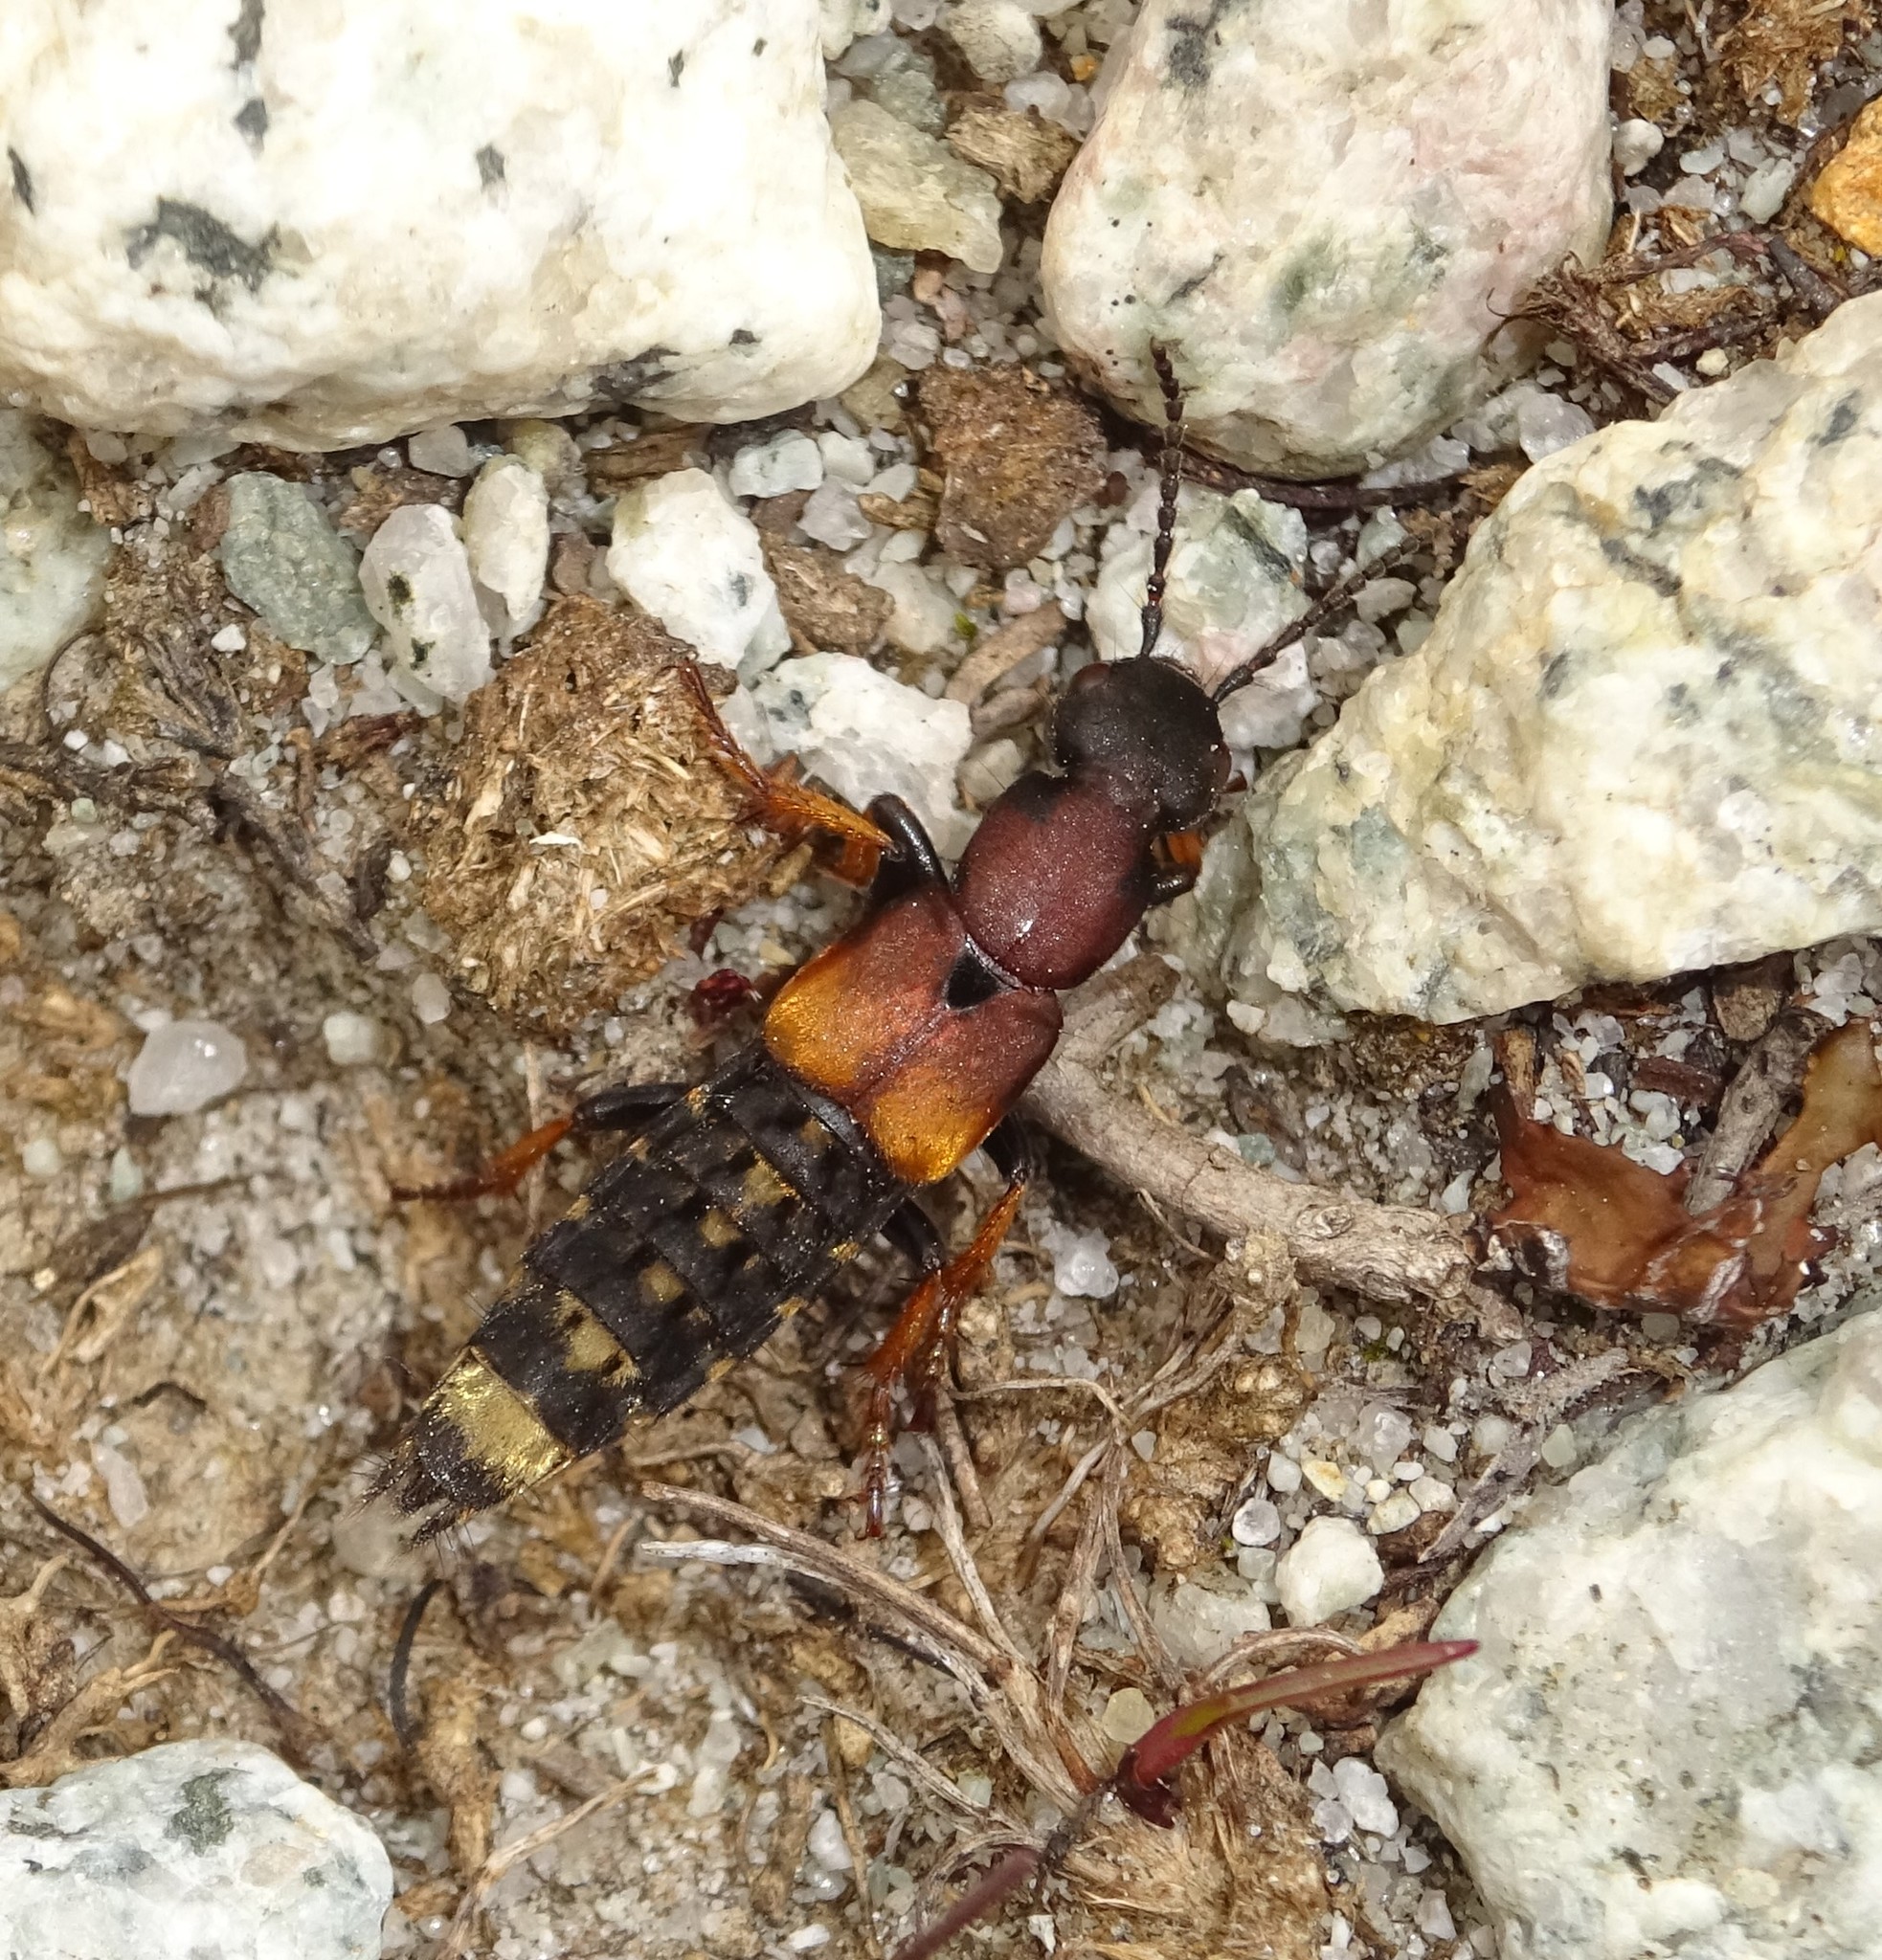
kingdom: Animalia
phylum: Arthropoda
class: Insecta
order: Coleoptera
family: Staphylinidae
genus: Dinothenarus
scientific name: Dinothenarus fossor
